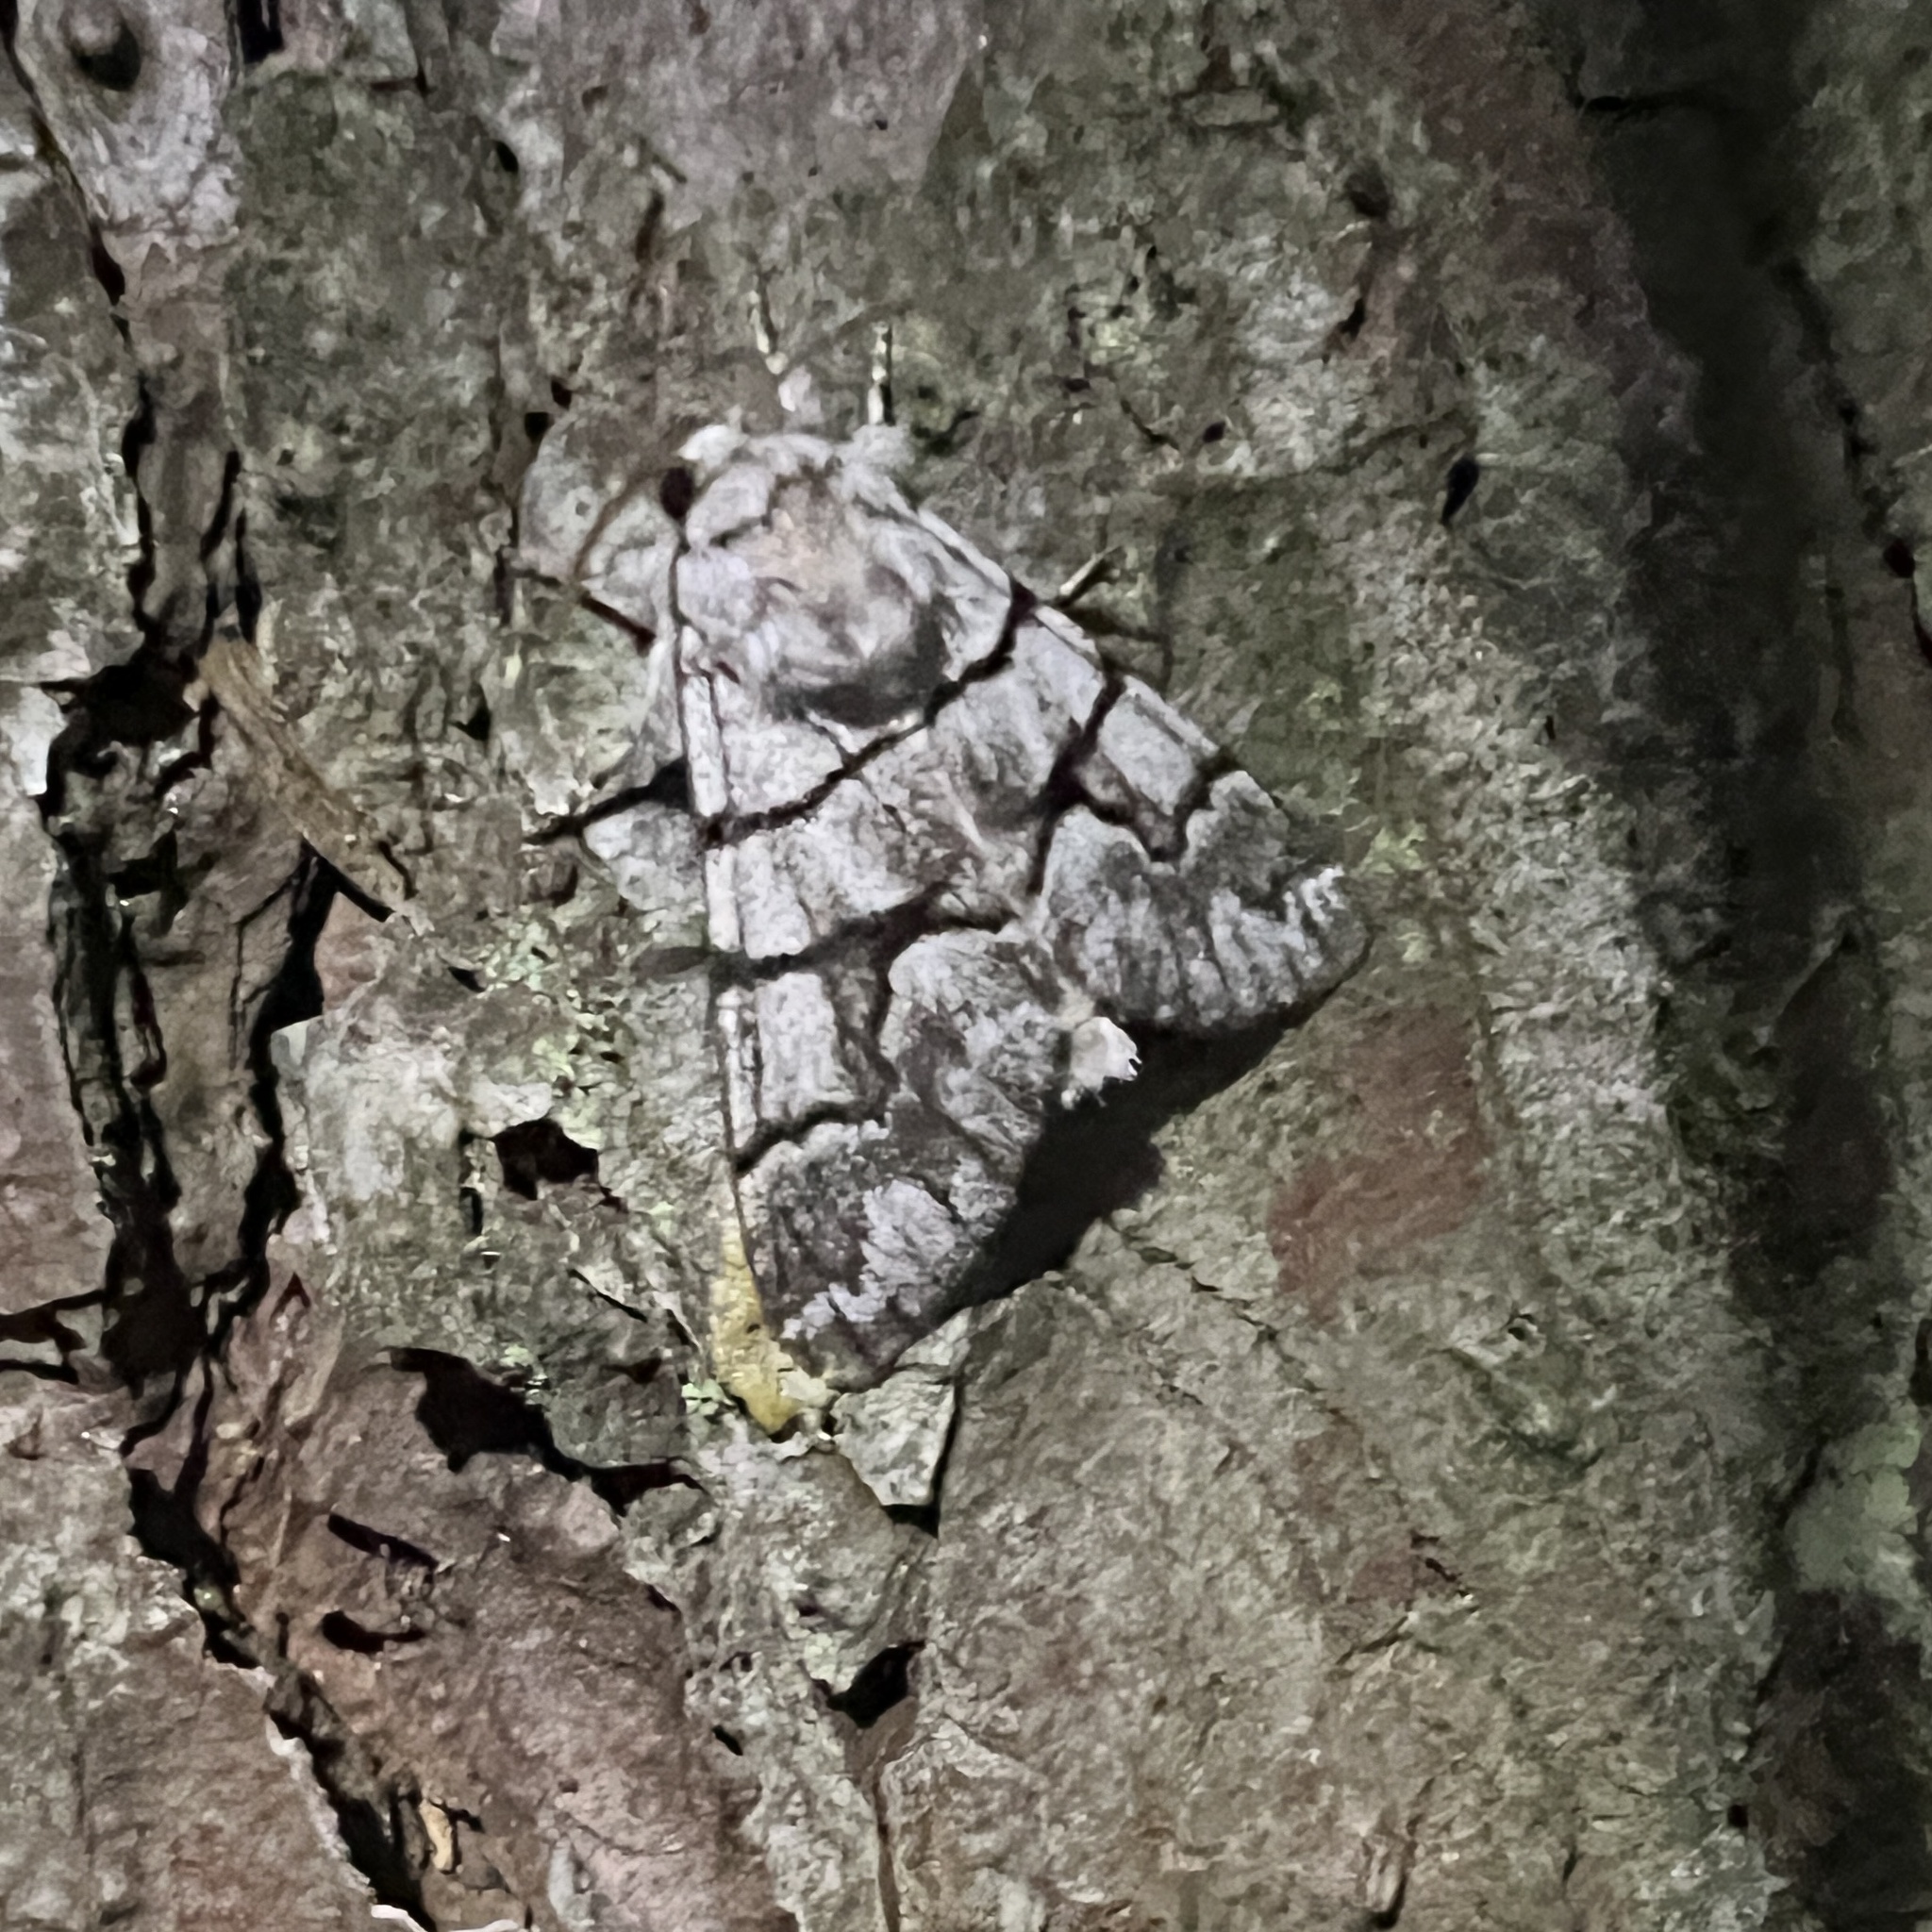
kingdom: Animalia
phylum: Arthropoda
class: Insecta
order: Lepidoptera
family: Noctuidae
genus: Panthea
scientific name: Panthea furcilla
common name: Eastern panthea moth
